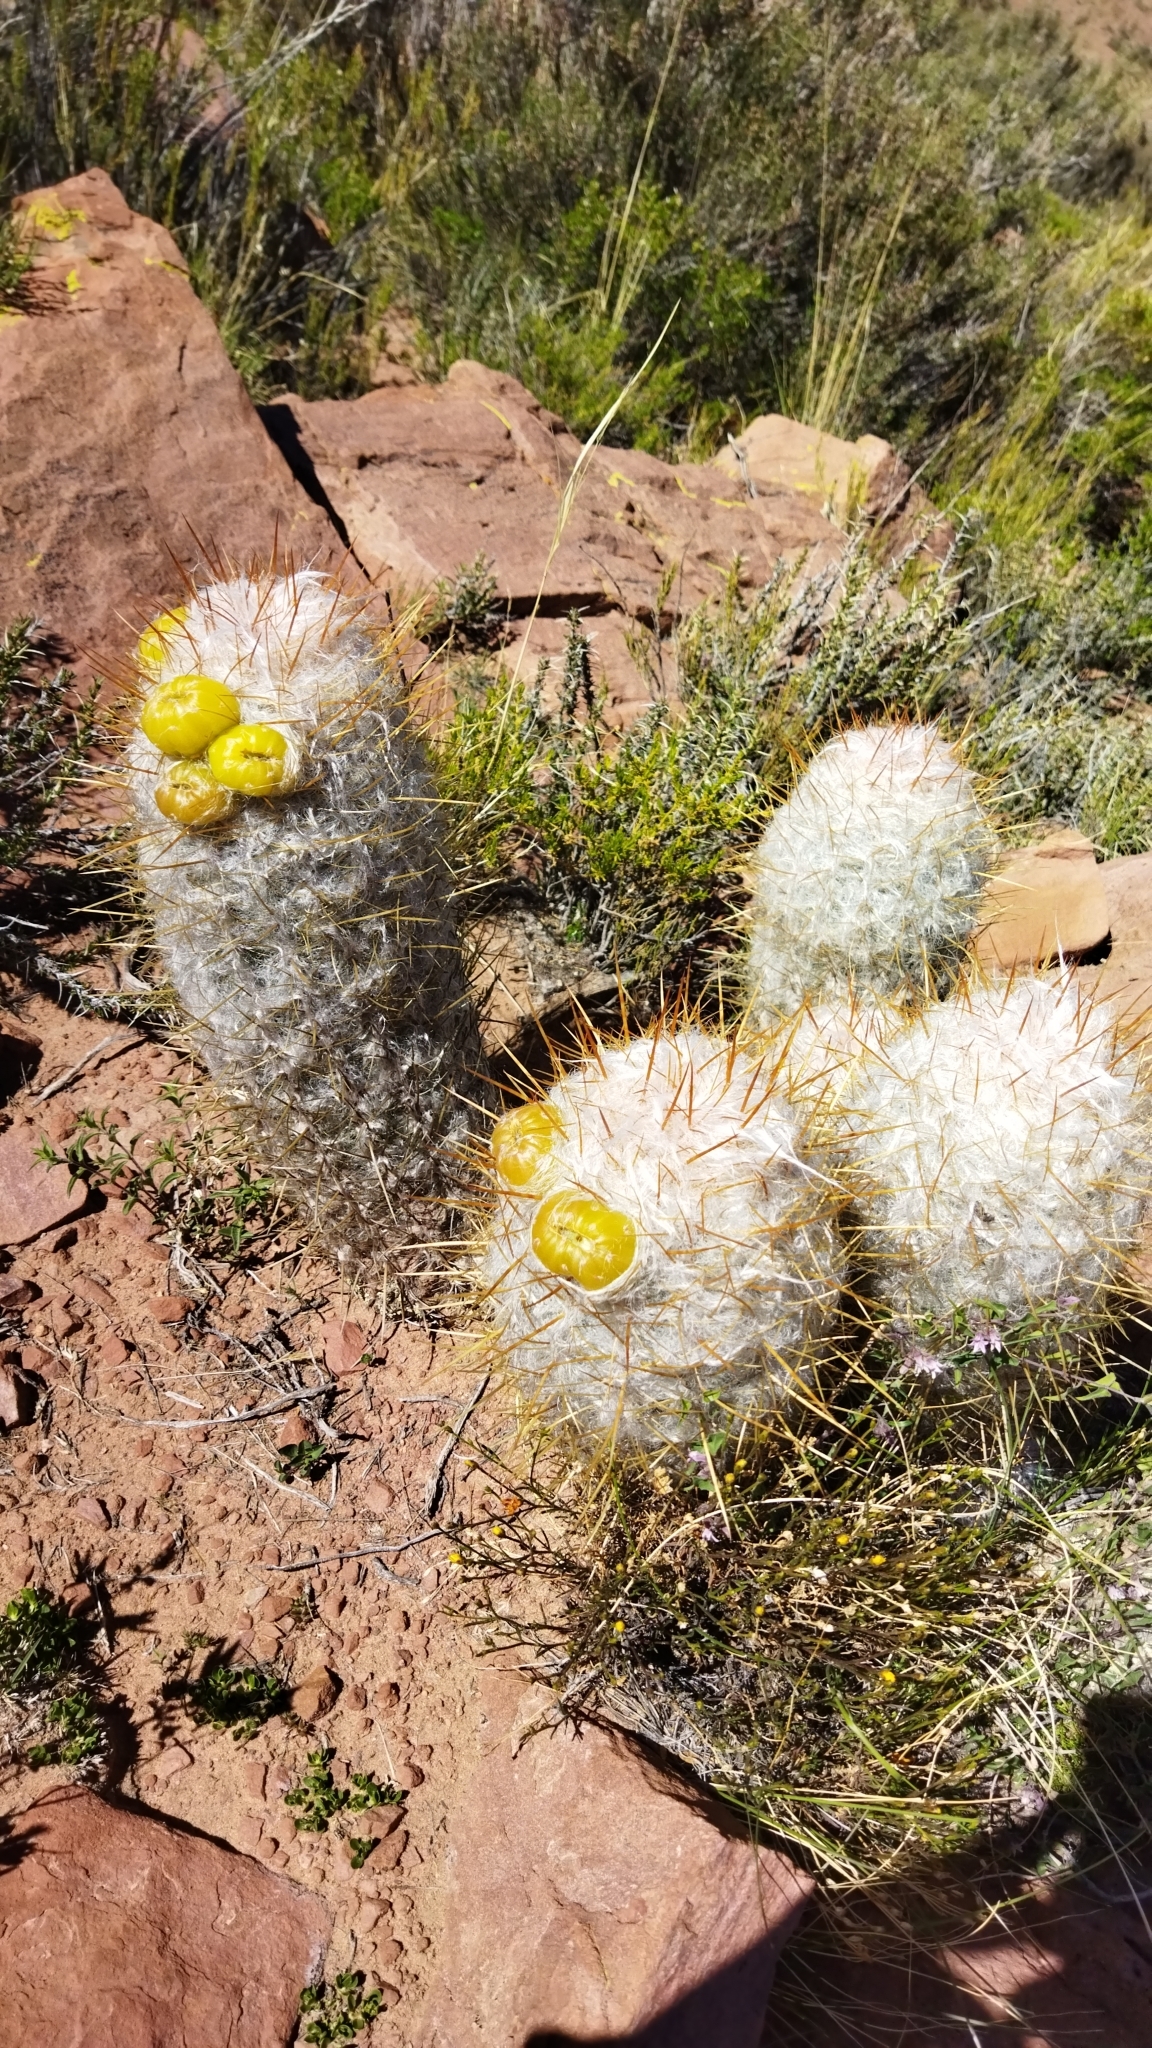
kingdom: Plantae
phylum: Tracheophyta
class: Magnoliopsida
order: Caryophyllales
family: Cactaceae
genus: Oreocereus
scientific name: Oreocereus trollii
